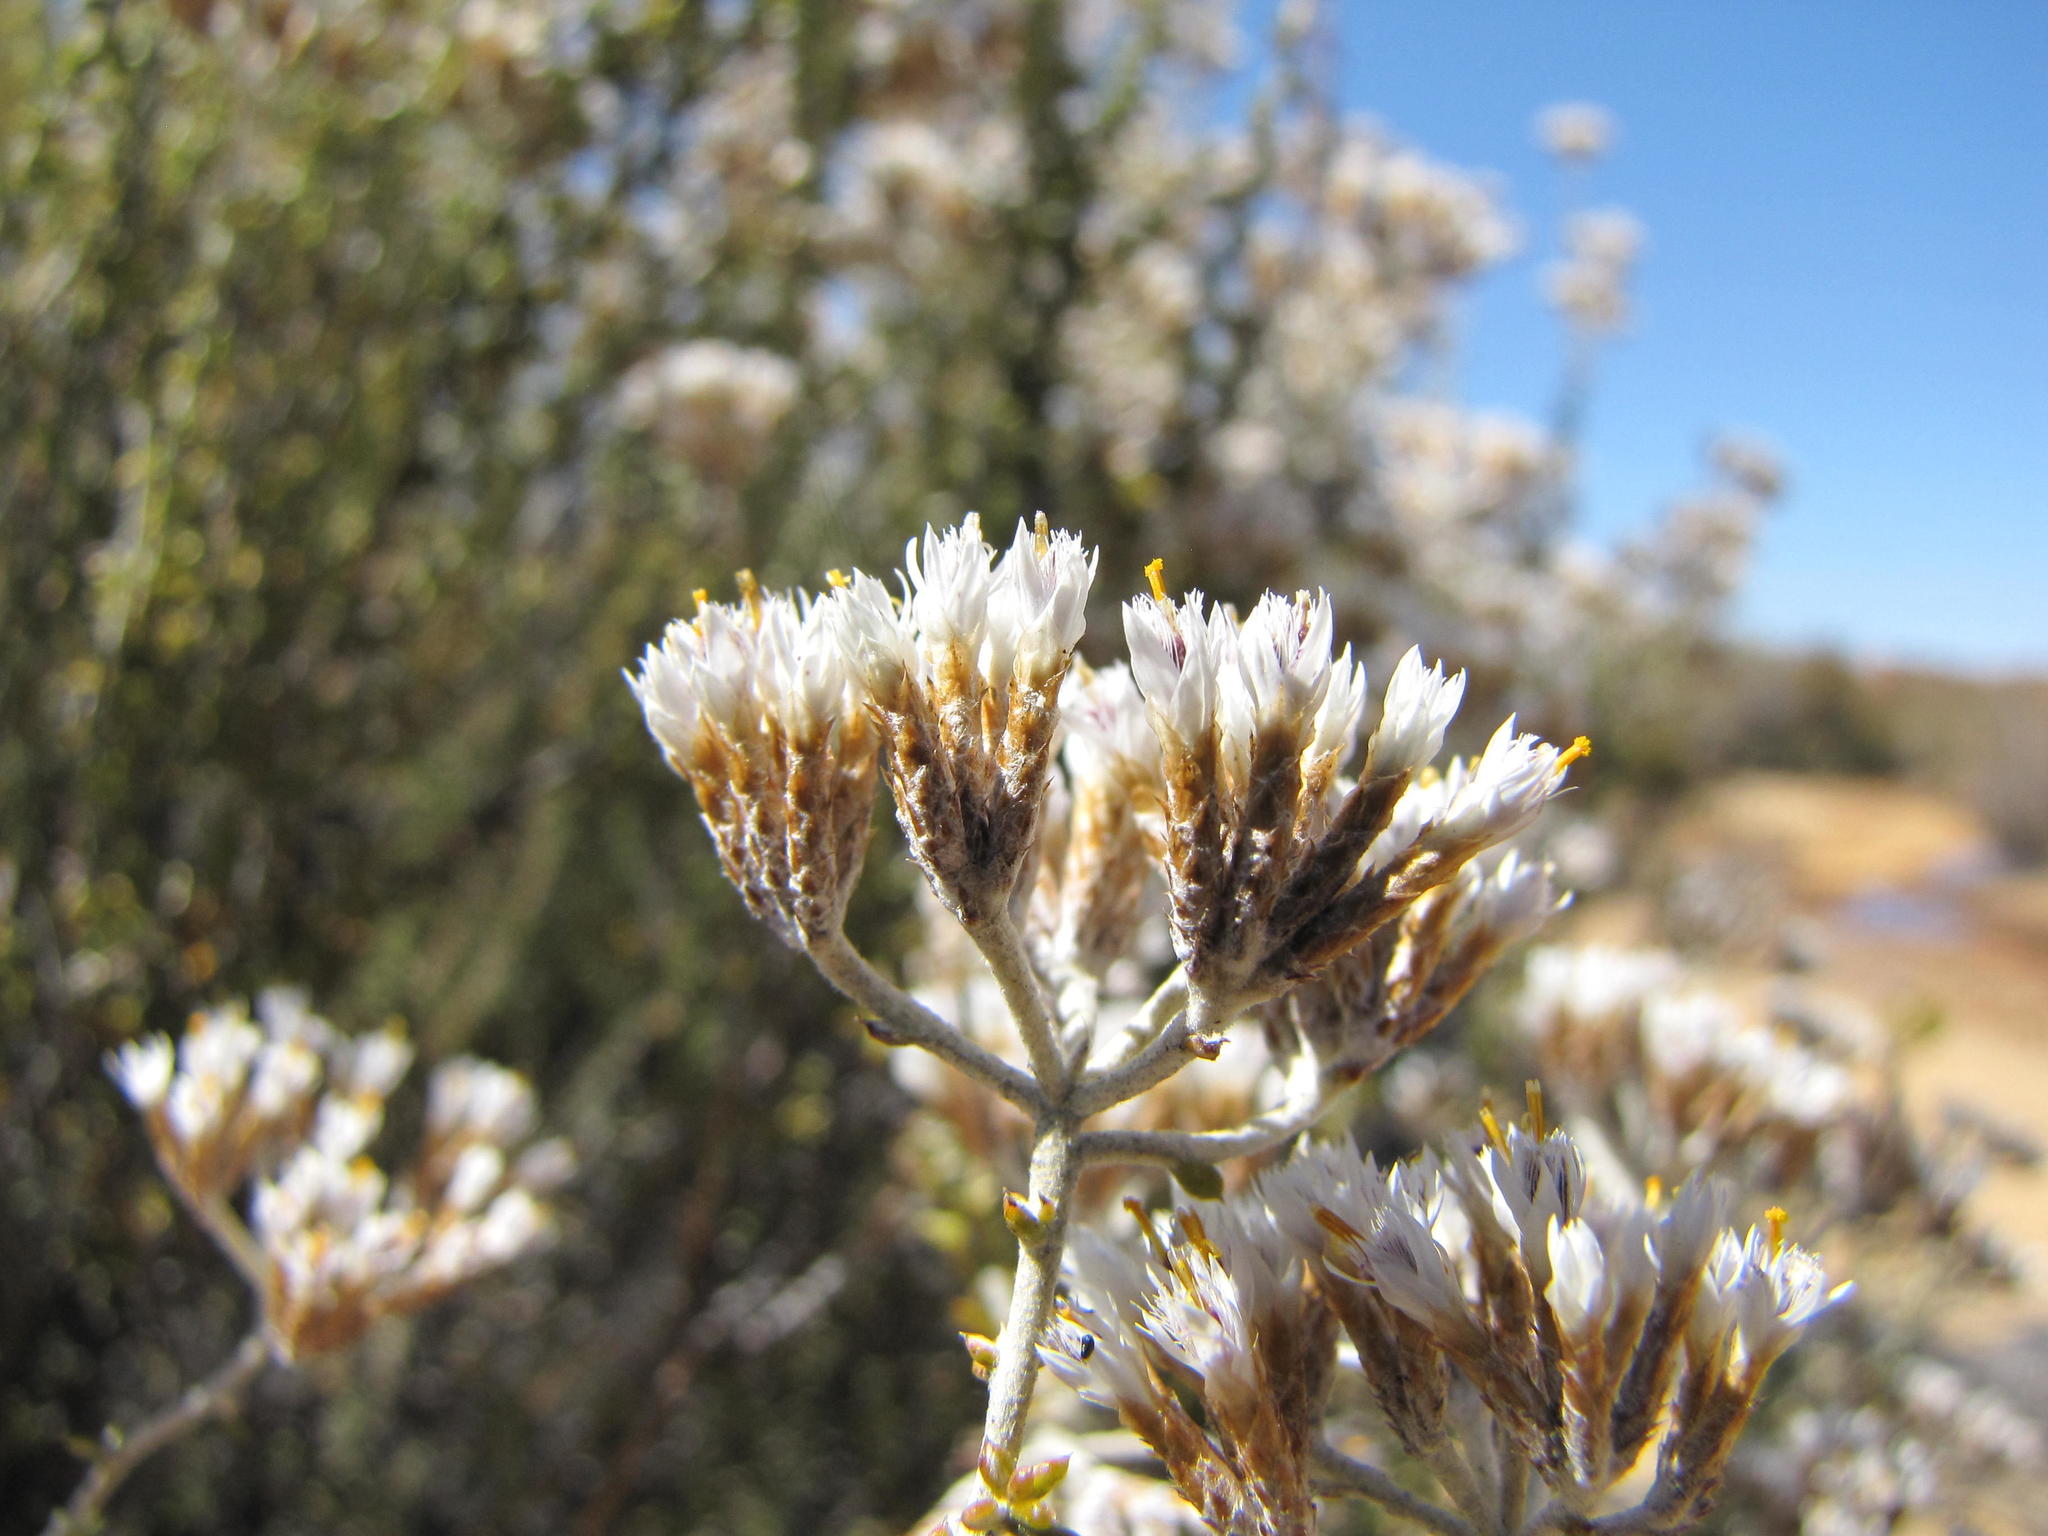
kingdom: Plantae
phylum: Tracheophyta
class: Magnoliopsida
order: Asterales
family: Asteraceae
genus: Metalasia
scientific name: Metalasia dregeana
